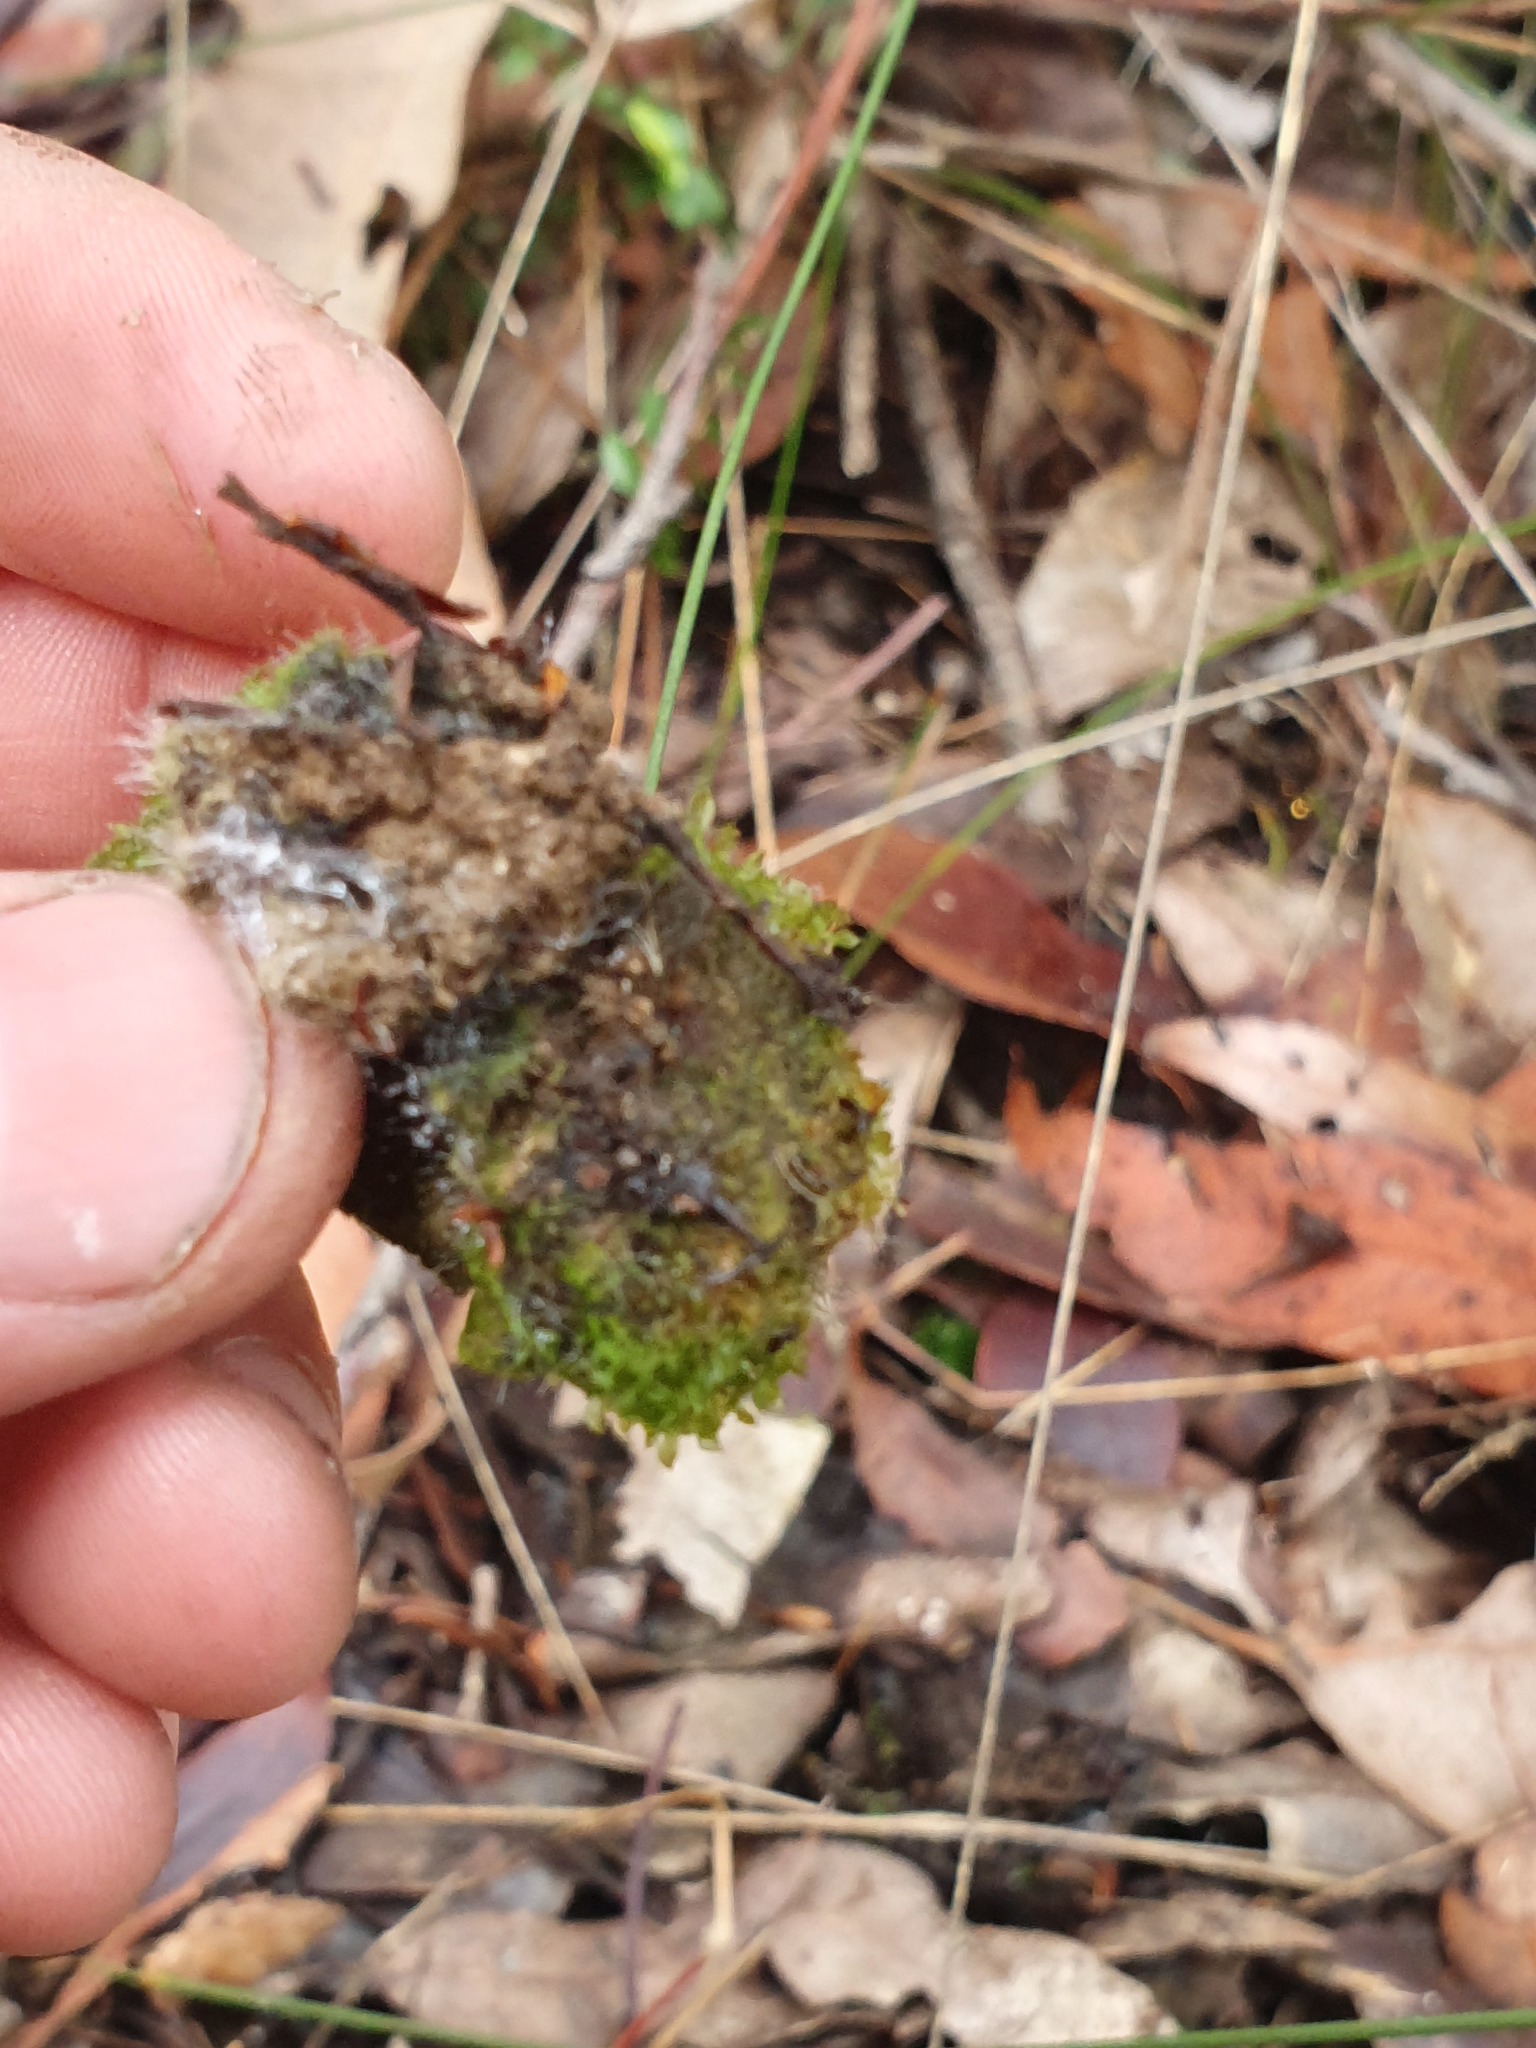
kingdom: Plantae
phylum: Bryophyta
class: Bryopsida
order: Splachnales
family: Splachnaceae
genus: Tayloria
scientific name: Tayloria octoblephara
